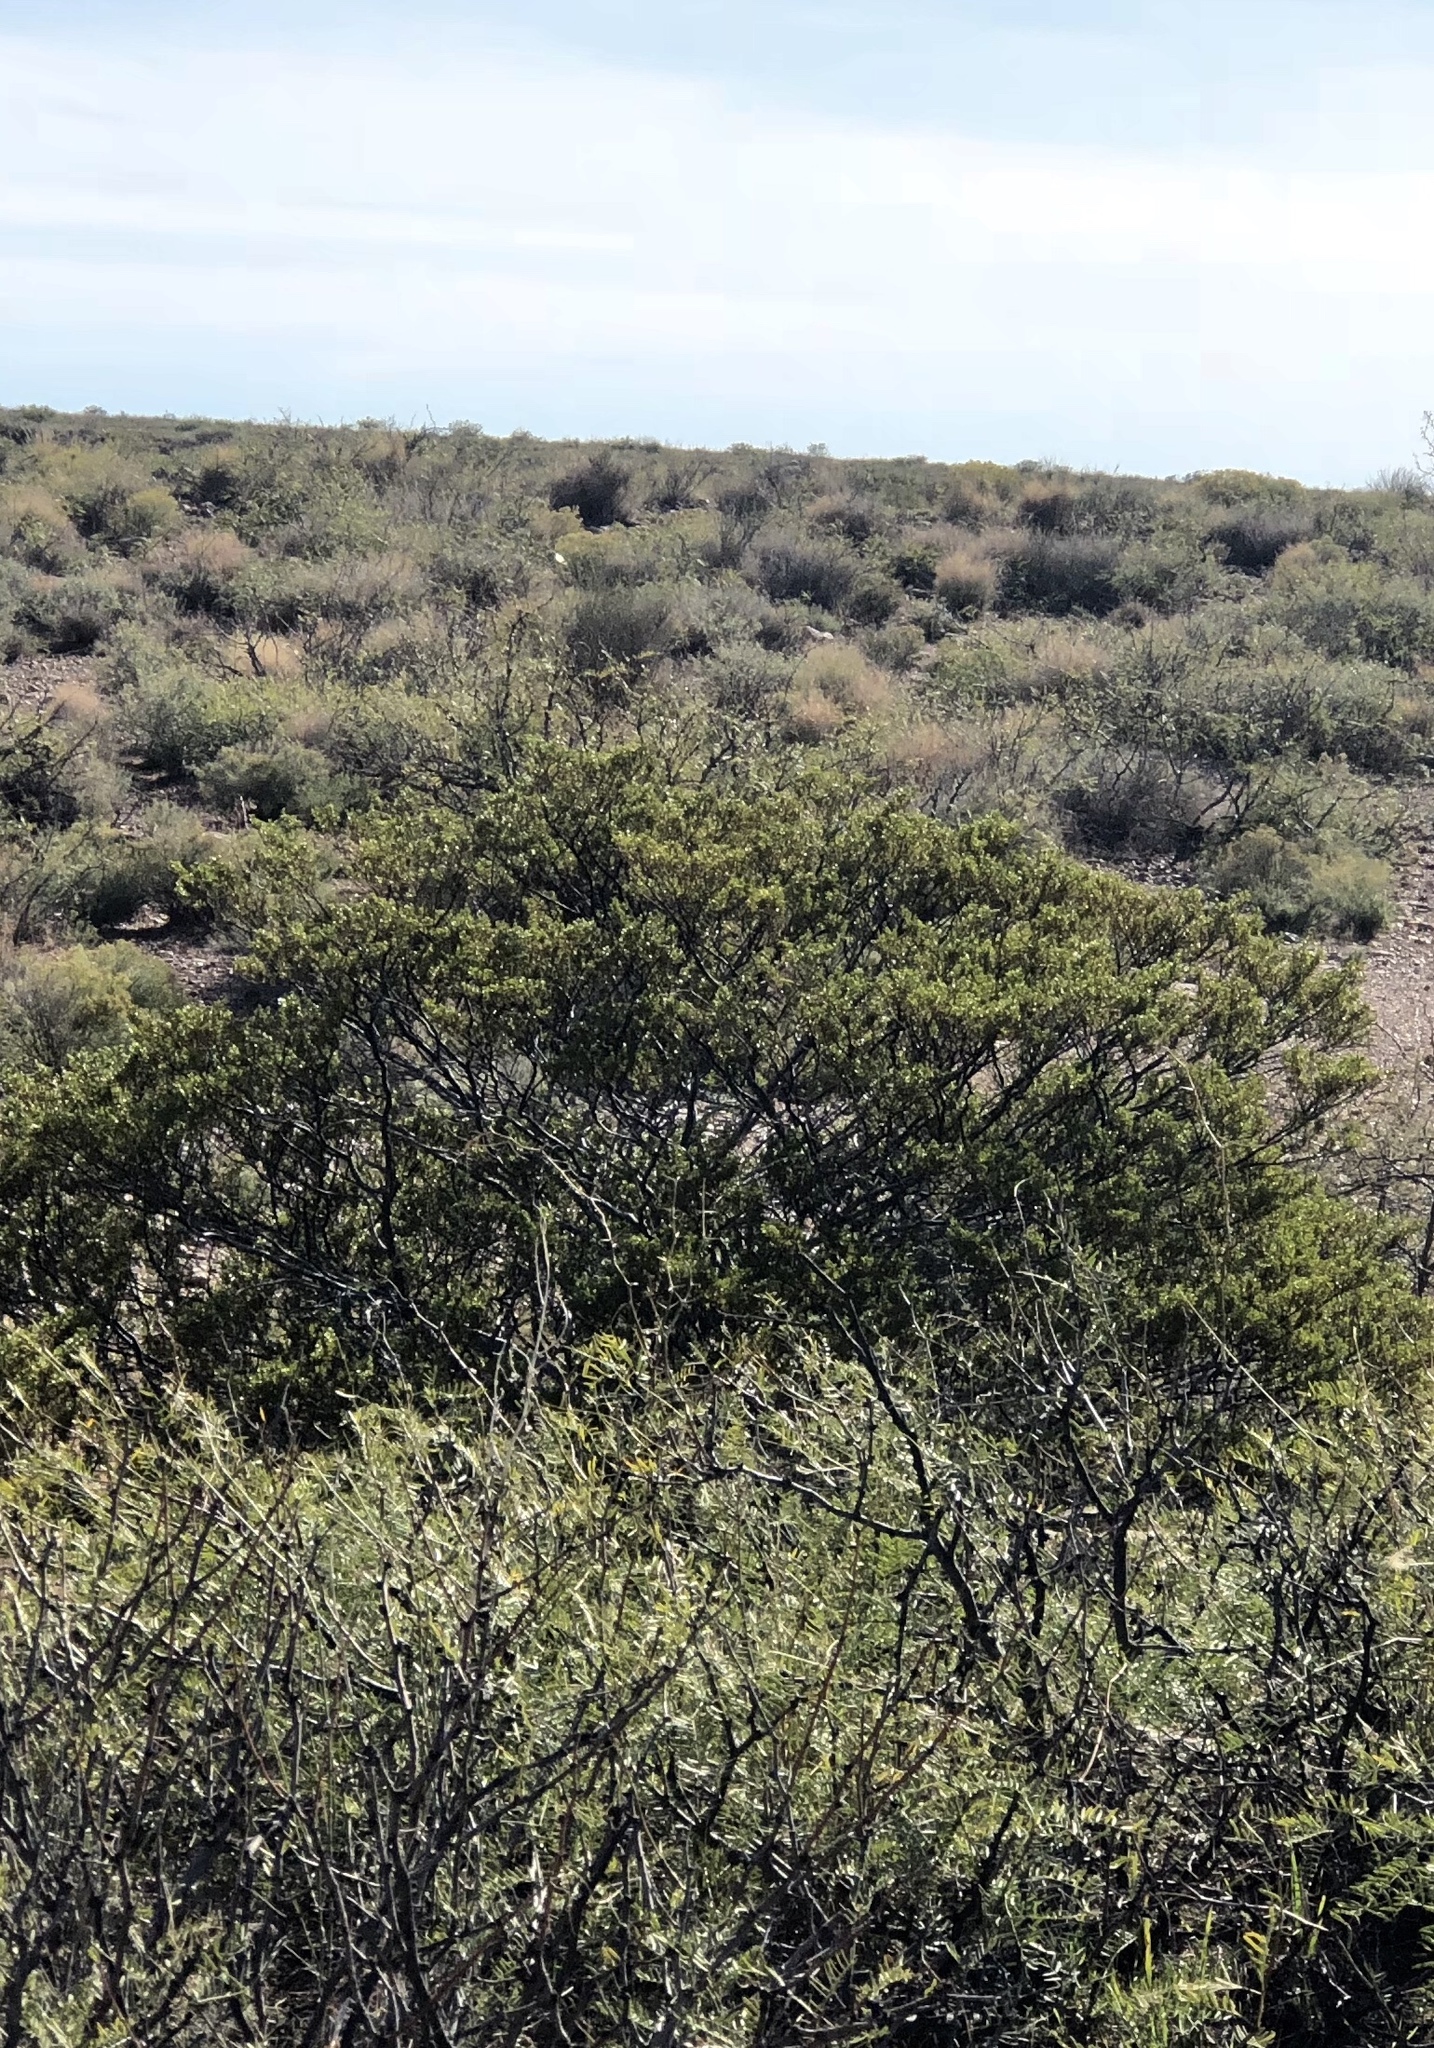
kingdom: Plantae
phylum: Tracheophyta
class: Magnoliopsida
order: Zygophyllales
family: Zygophyllaceae
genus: Larrea
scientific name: Larrea tridentata
